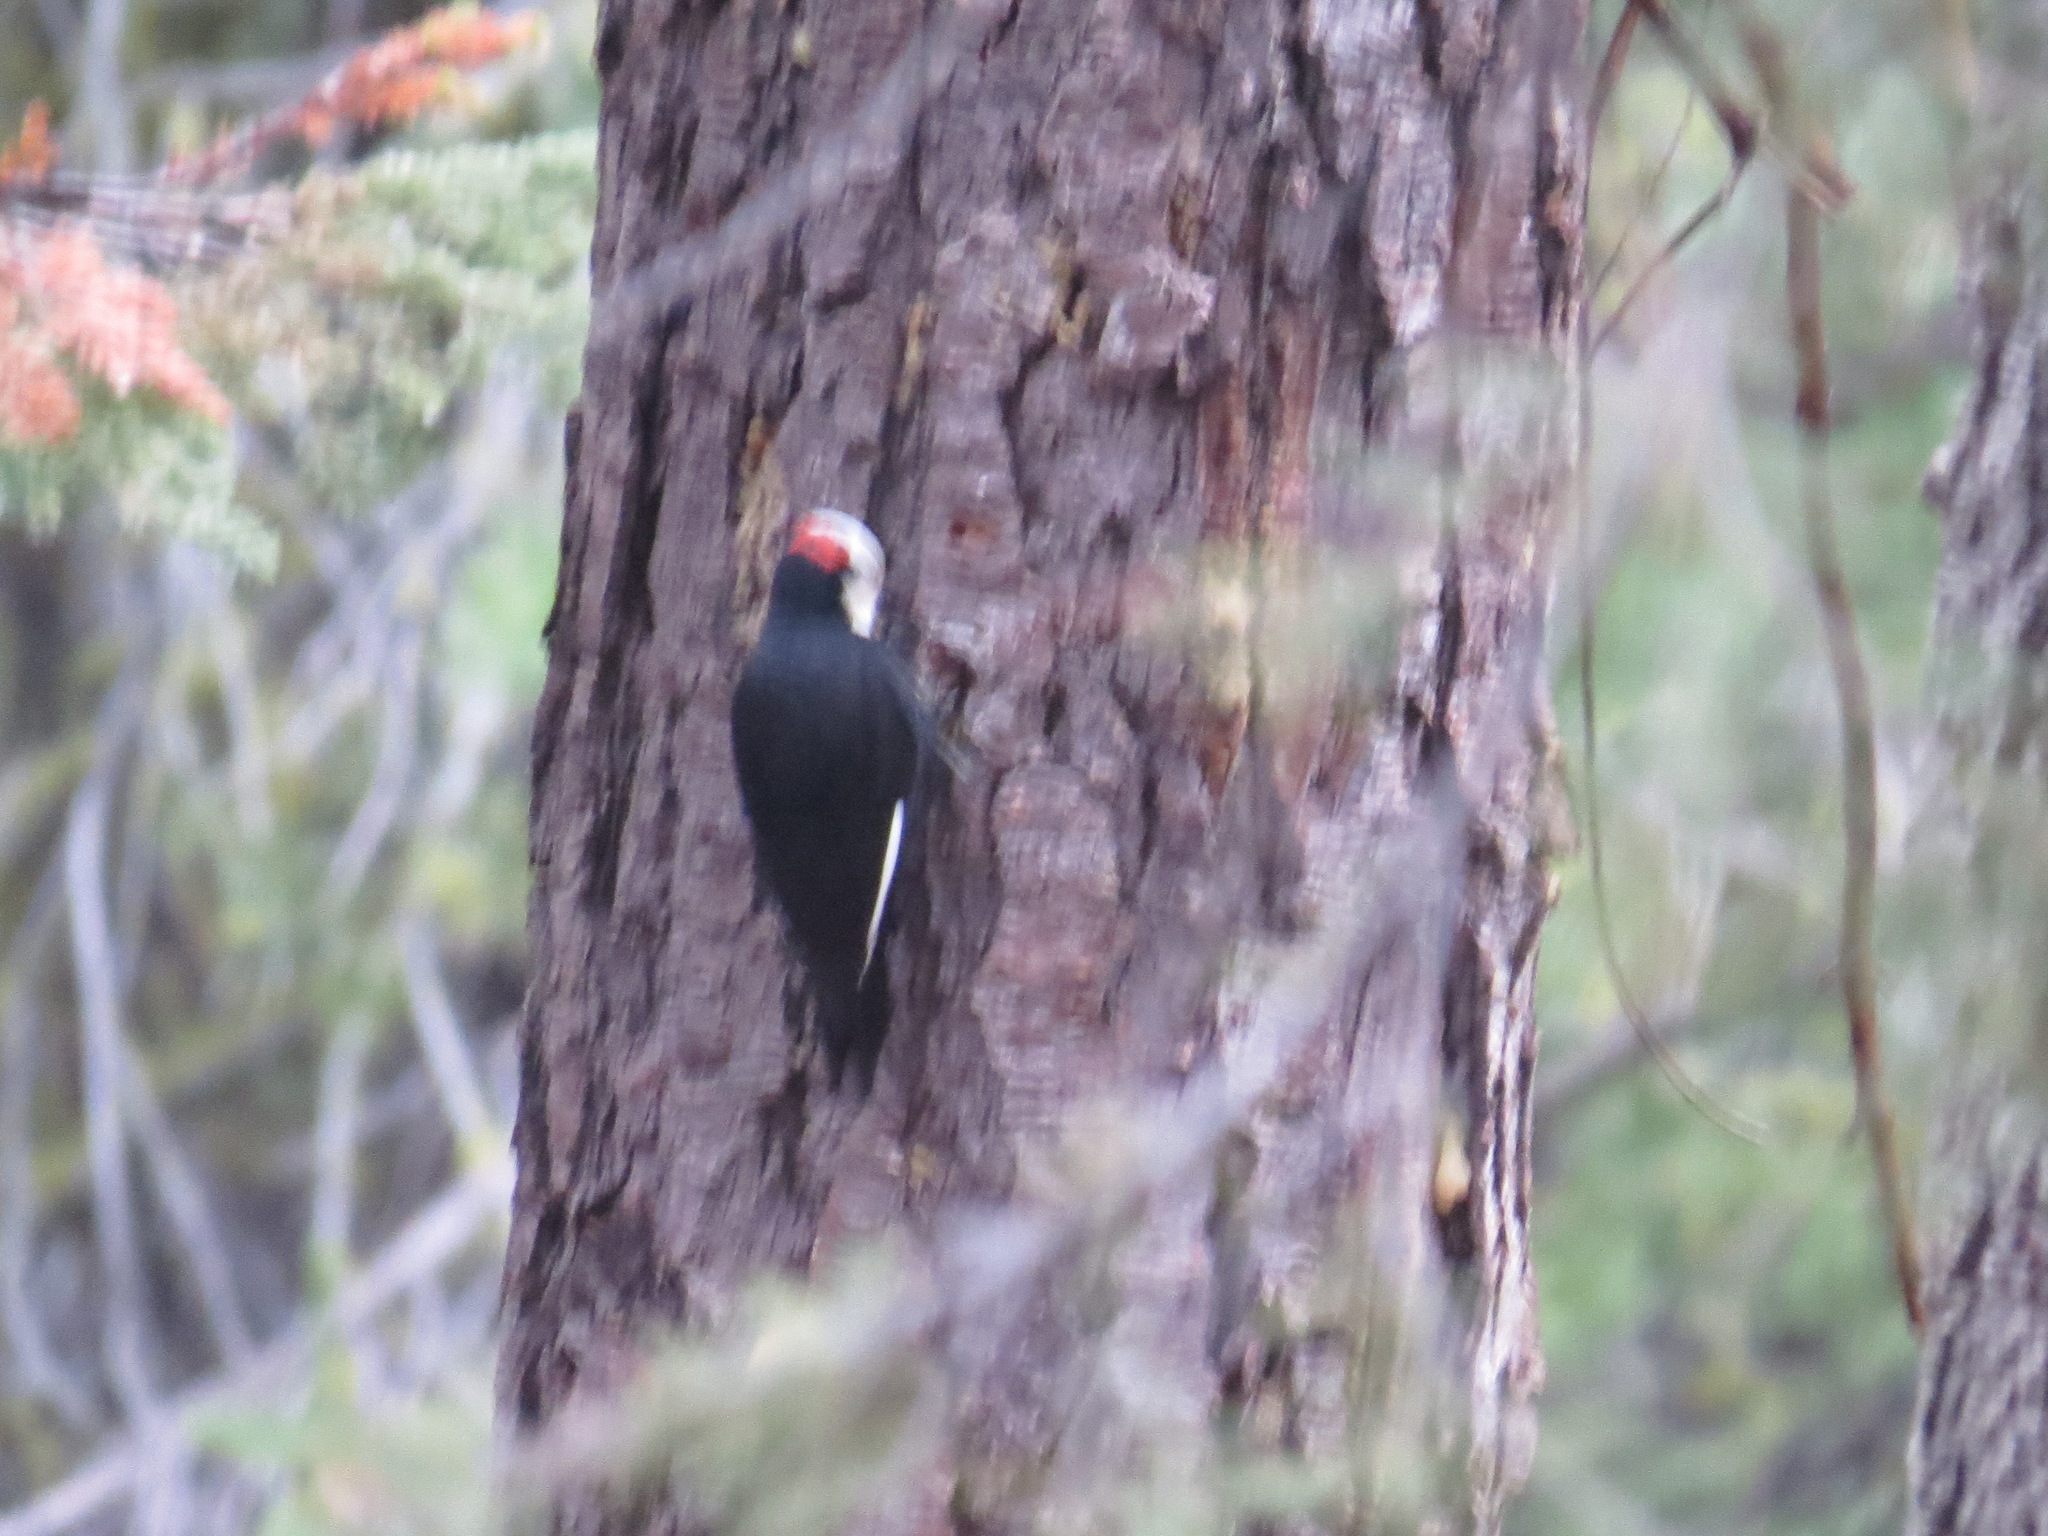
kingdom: Animalia
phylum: Chordata
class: Aves
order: Piciformes
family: Picidae
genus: Leuconotopicus
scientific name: Leuconotopicus albolarvatus
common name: White-headed woodpecker
